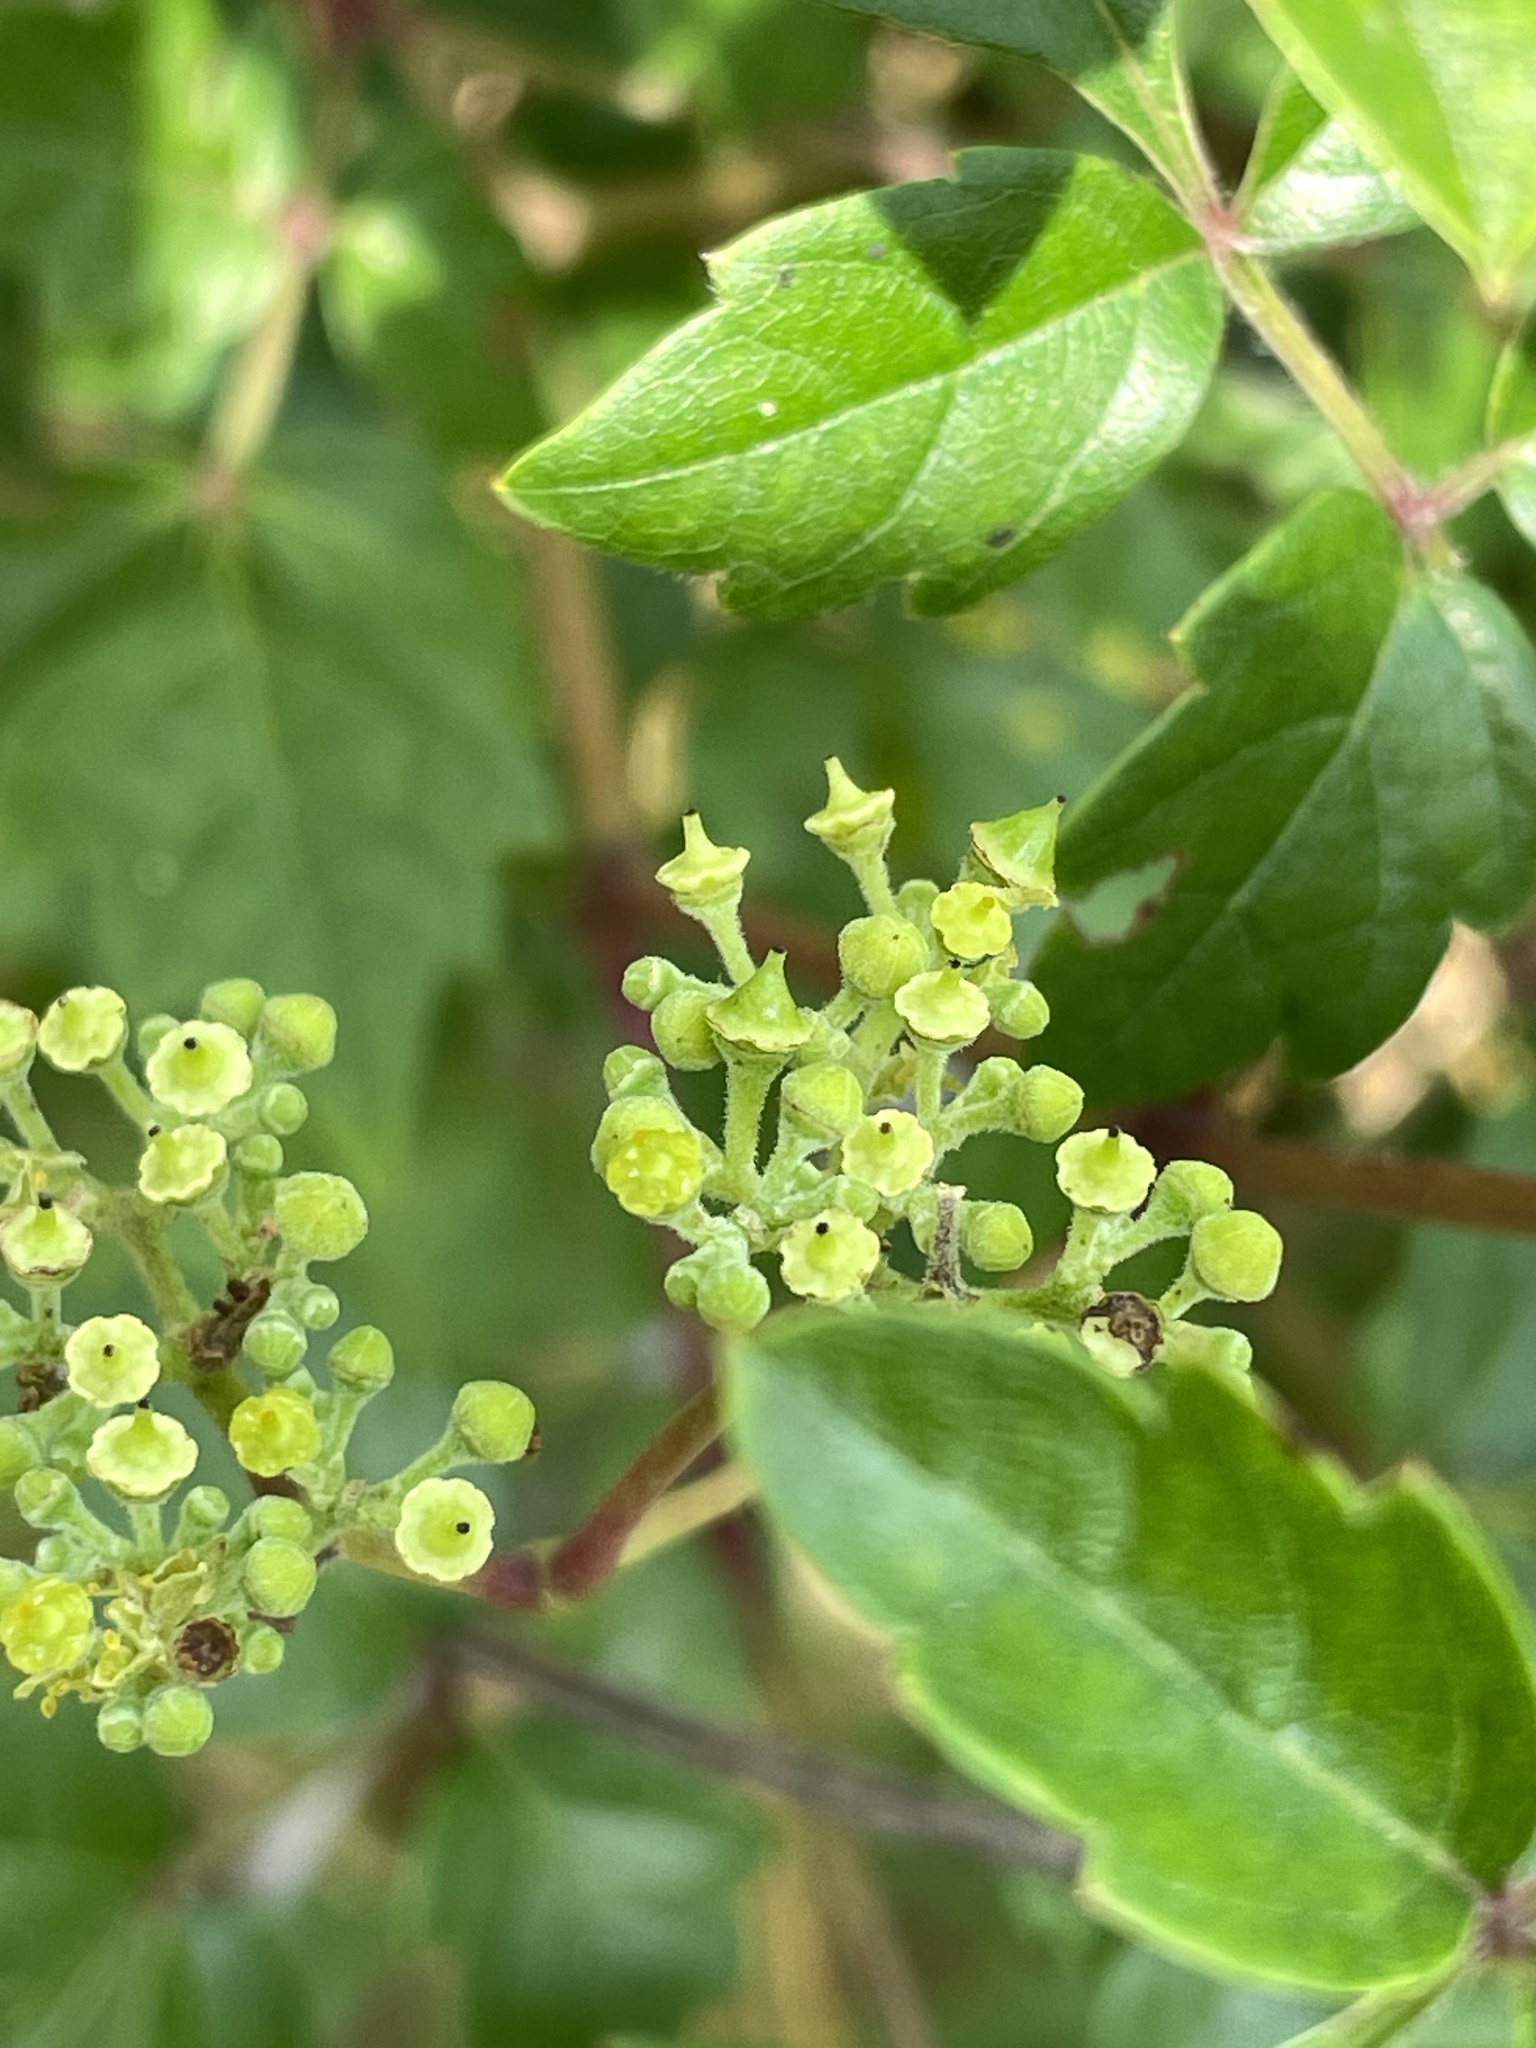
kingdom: Plantae
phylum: Tracheophyta
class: Magnoliopsida
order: Vitales
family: Vitaceae
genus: Nekemias
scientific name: Nekemias arborea
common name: Peppervine
